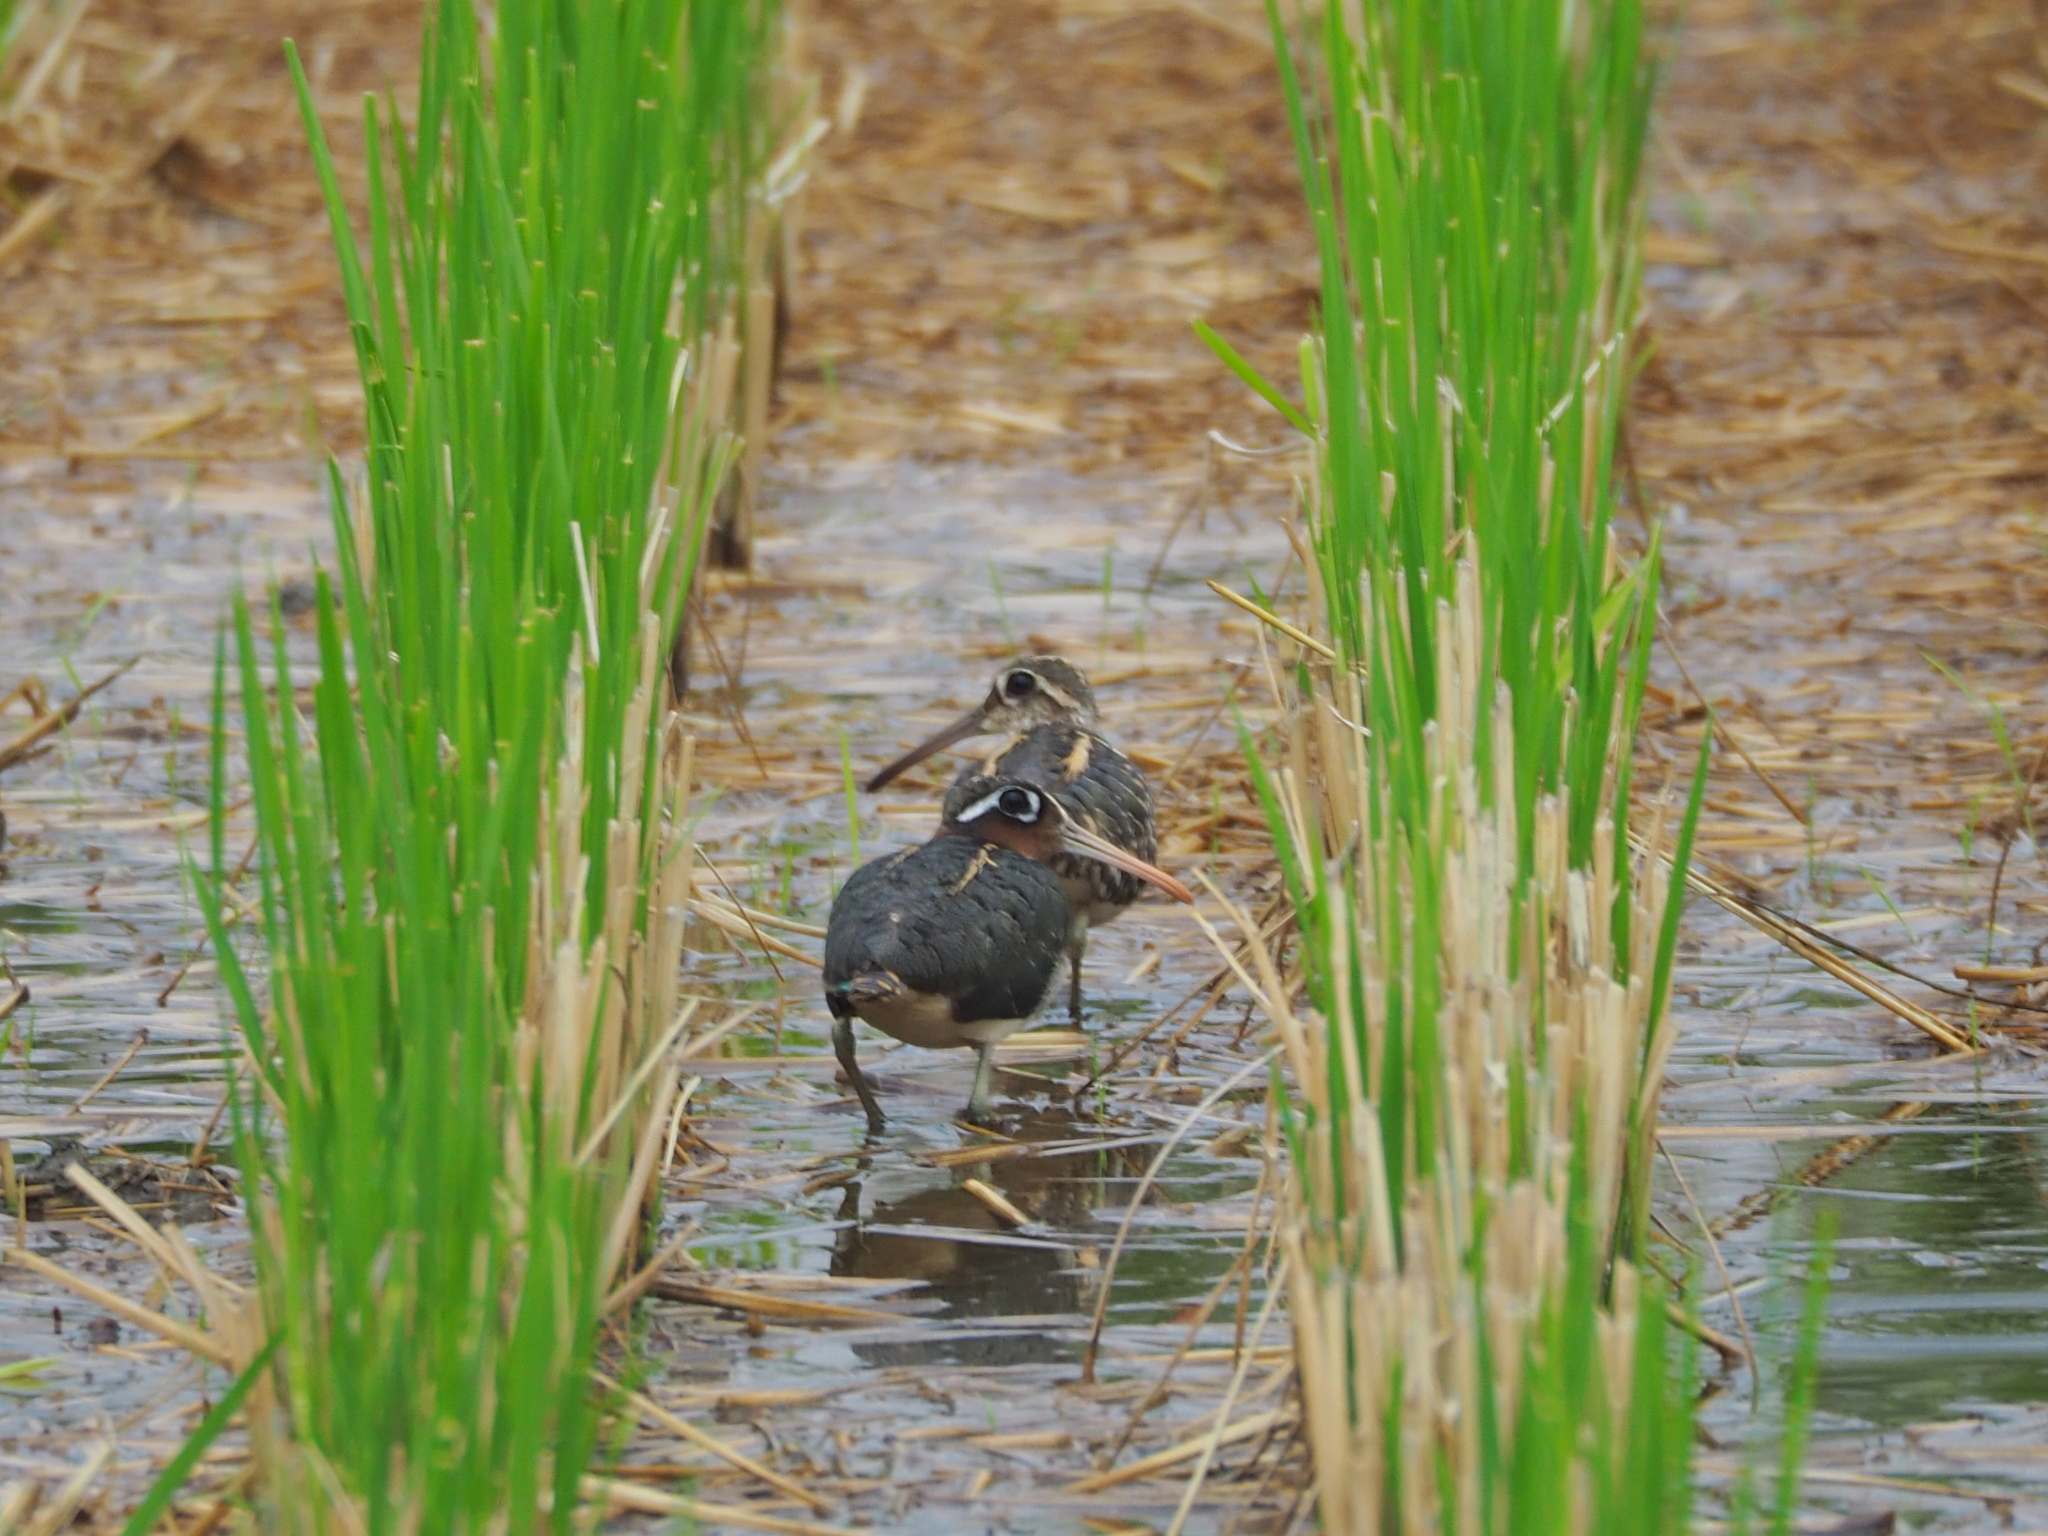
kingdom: Animalia
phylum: Chordata
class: Aves
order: Charadriiformes
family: Rostratulidae
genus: Rostratula
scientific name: Rostratula benghalensis
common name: Greater painted-snipe
